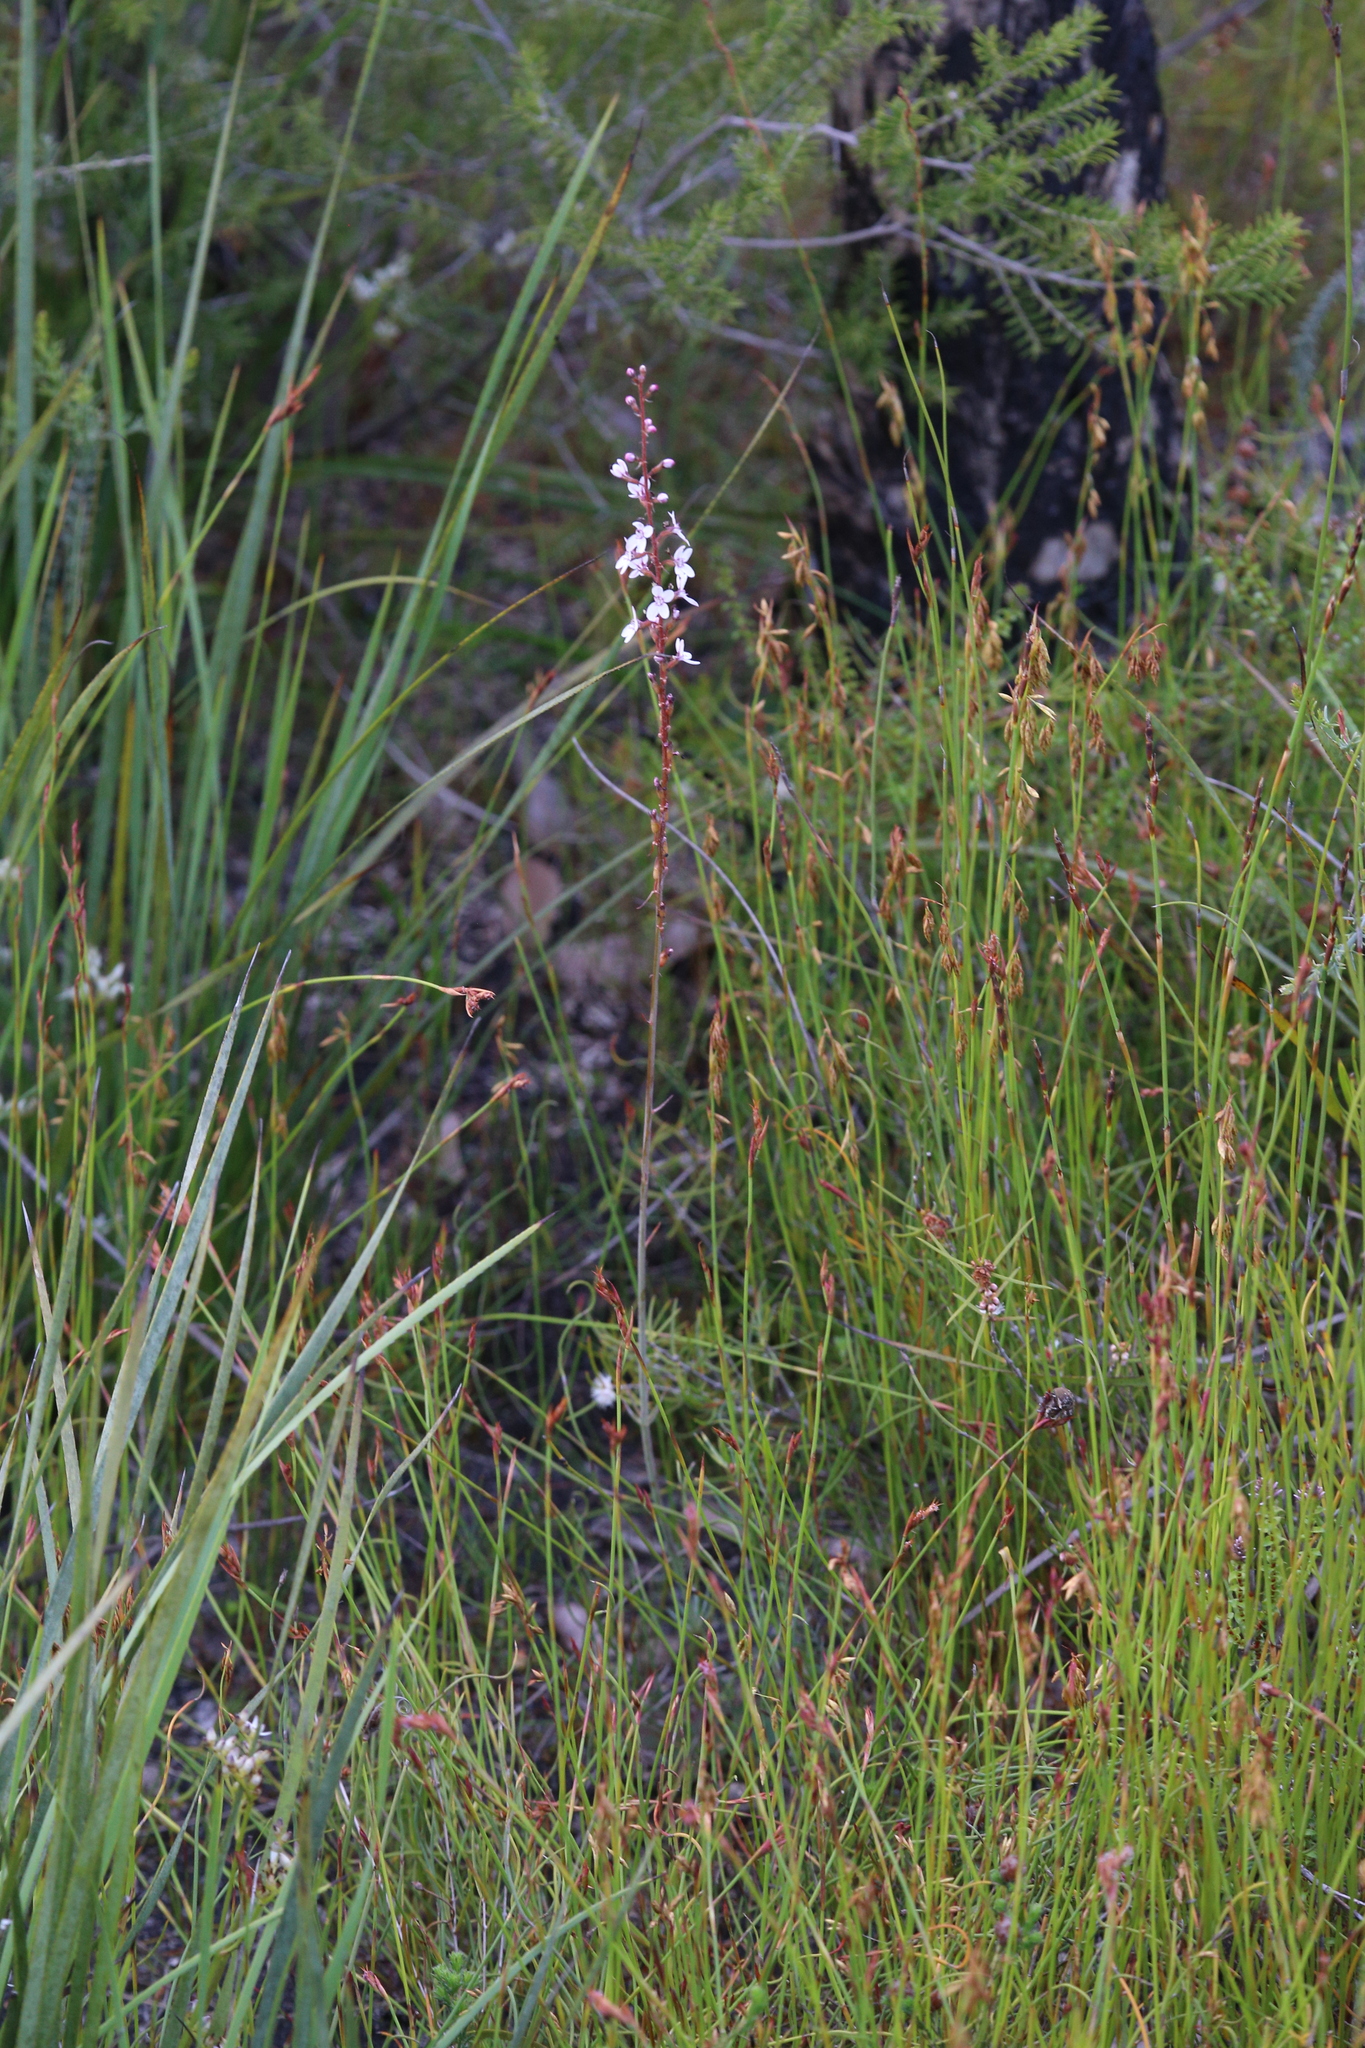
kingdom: Plantae
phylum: Tracheophyta
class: Magnoliopsida
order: Asterales
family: Stylidiaceae
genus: Stylidium
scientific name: Stylidium diversifolium
